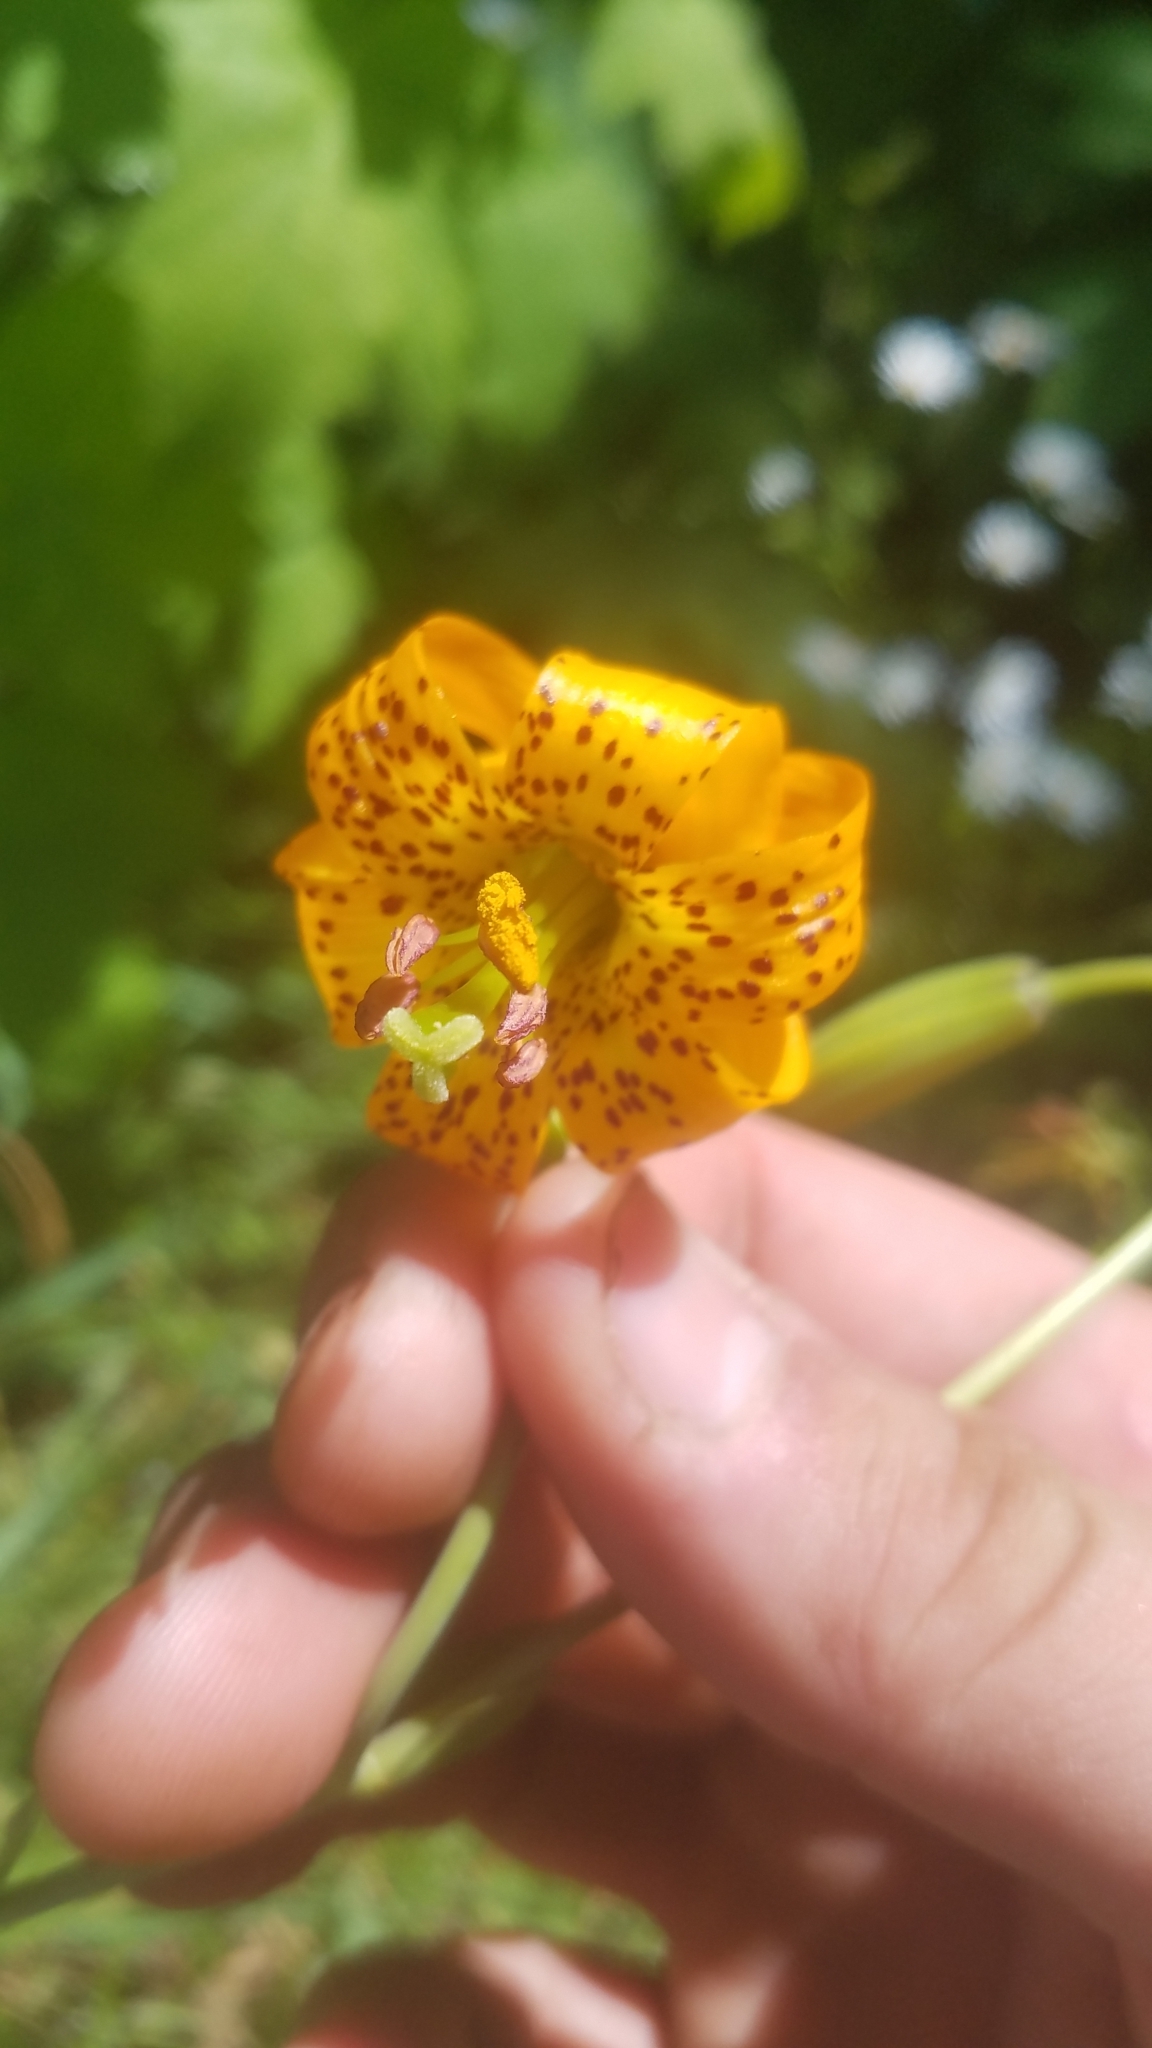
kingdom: Plantae
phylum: Tracheophyta
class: Liliopsida
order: Liliales
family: Liliaceae
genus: Lilium
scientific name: Lilium columbianum
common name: Columbia lily
